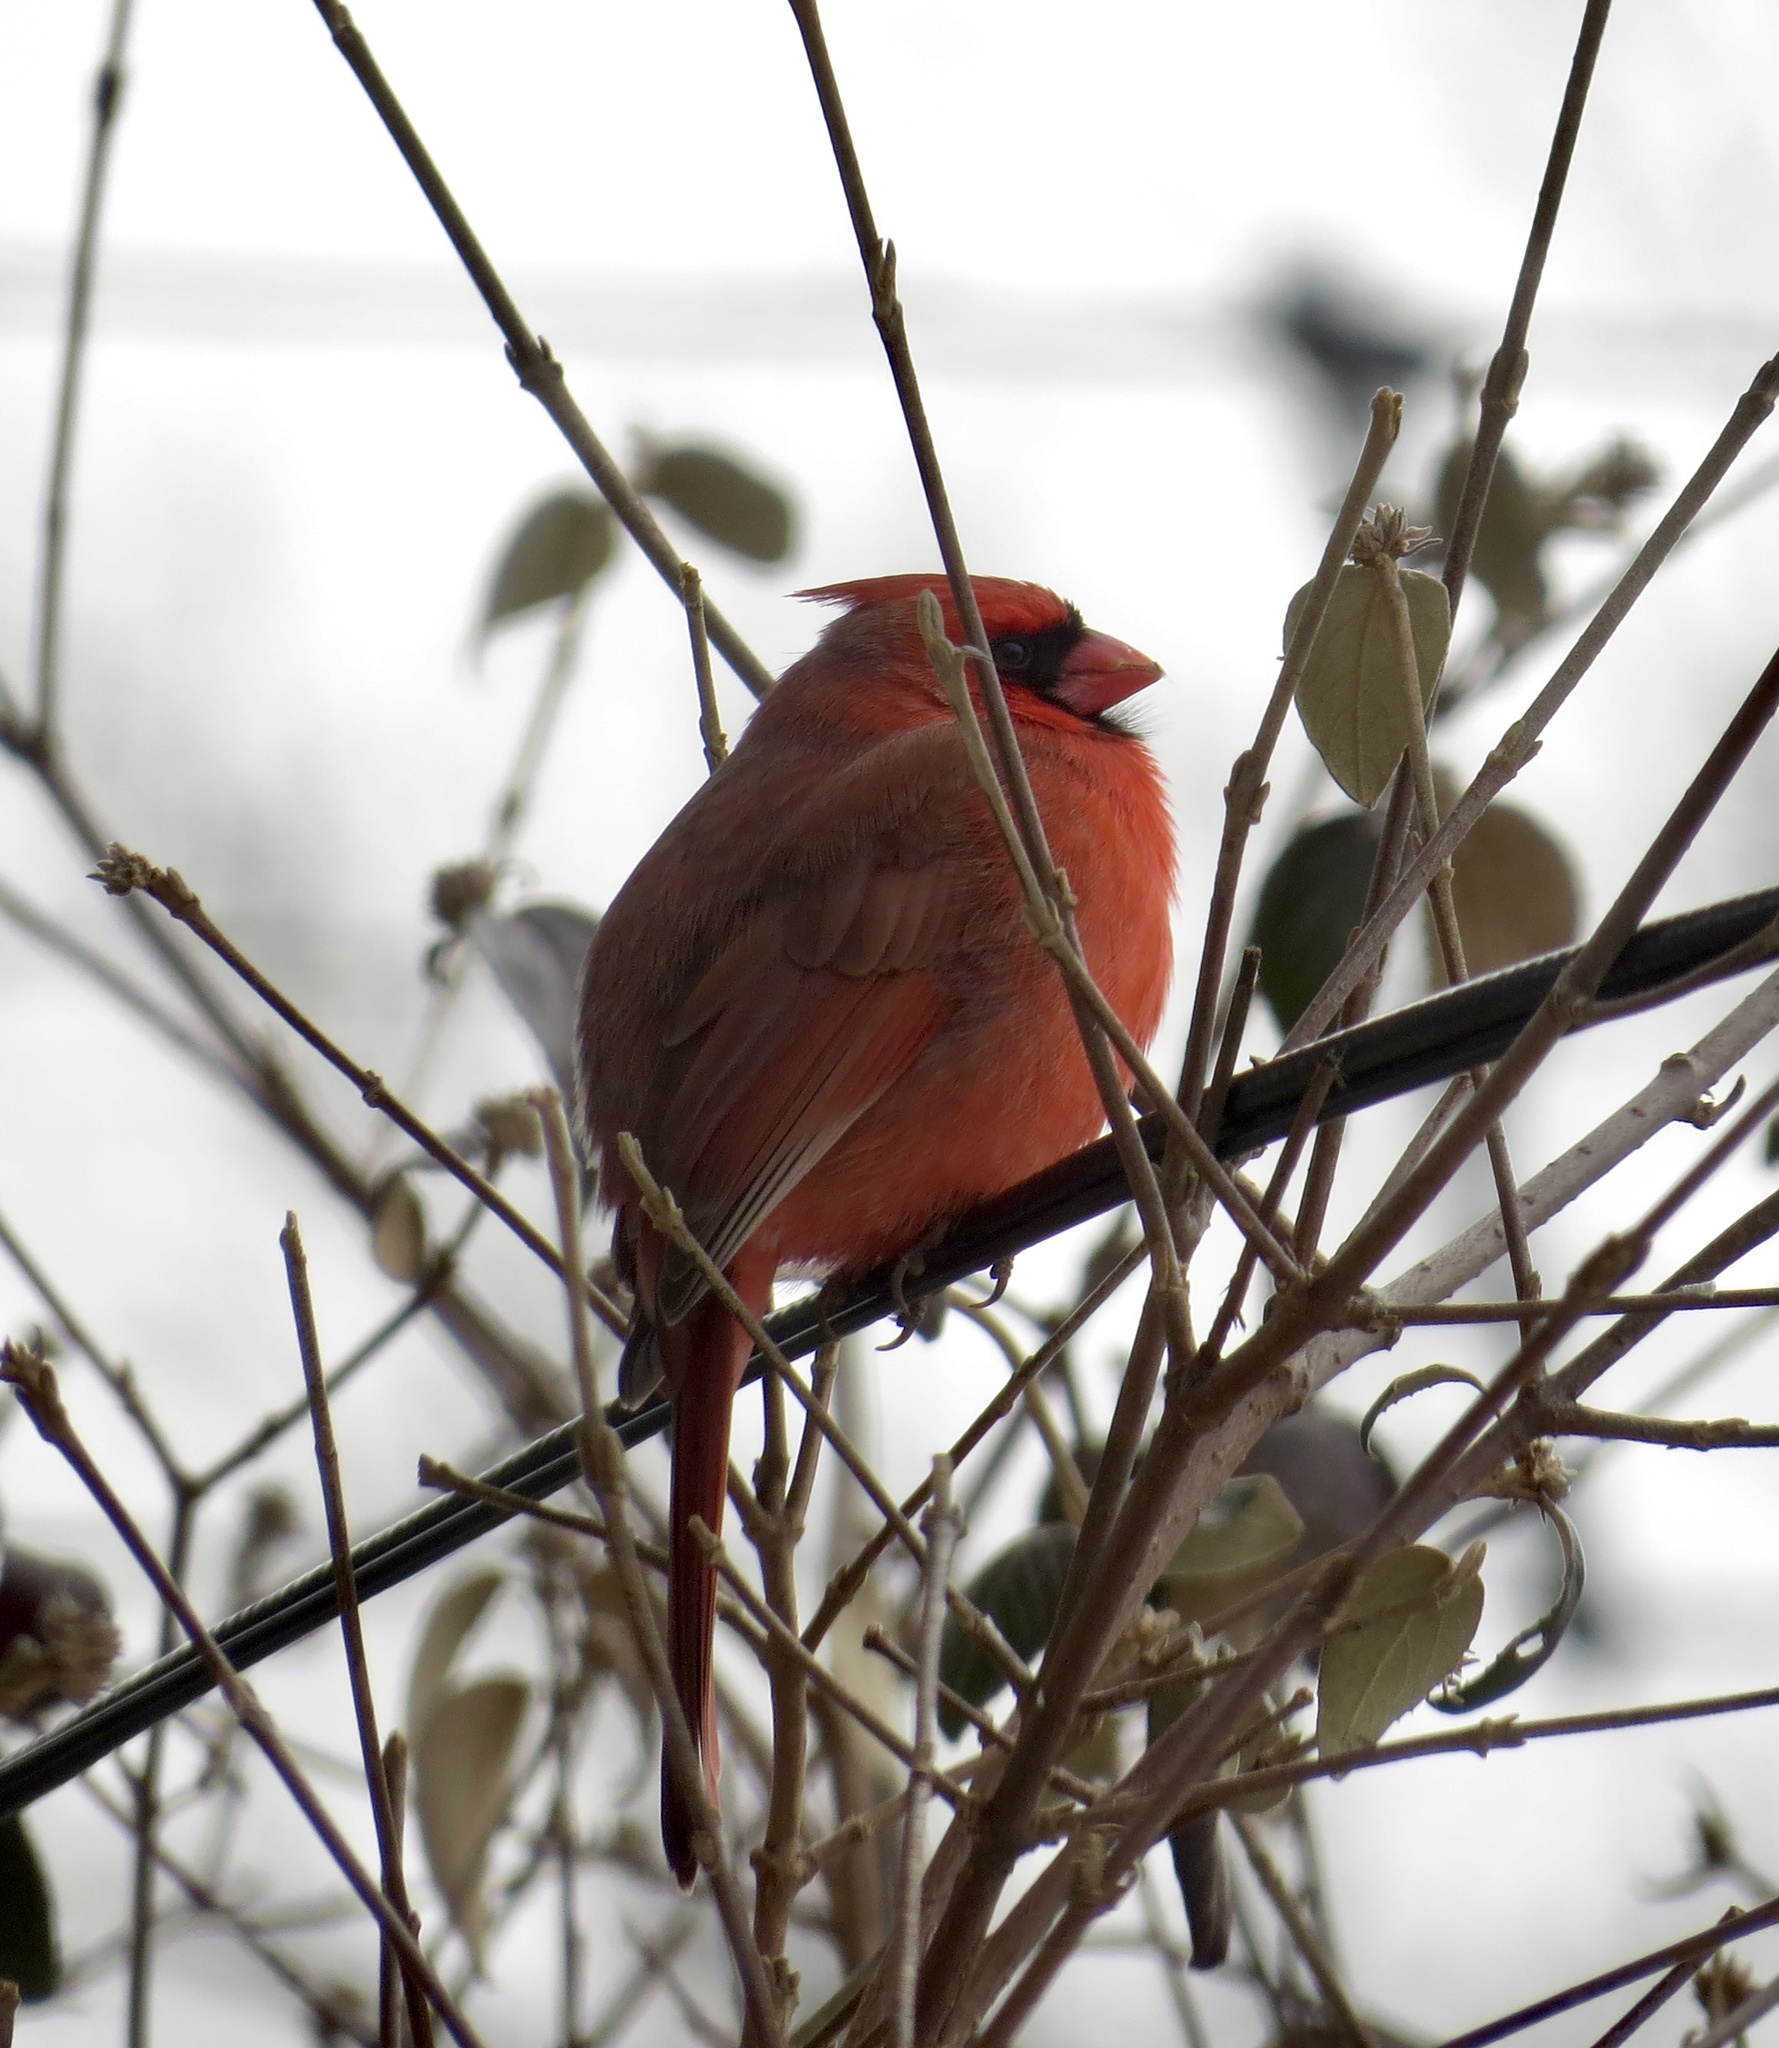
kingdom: Animalia
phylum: Chordata
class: Aves
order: Passeriformes
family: Cardinalidae
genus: Cardinalis
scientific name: Cardinalis cardinalis
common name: Northern cardinal
